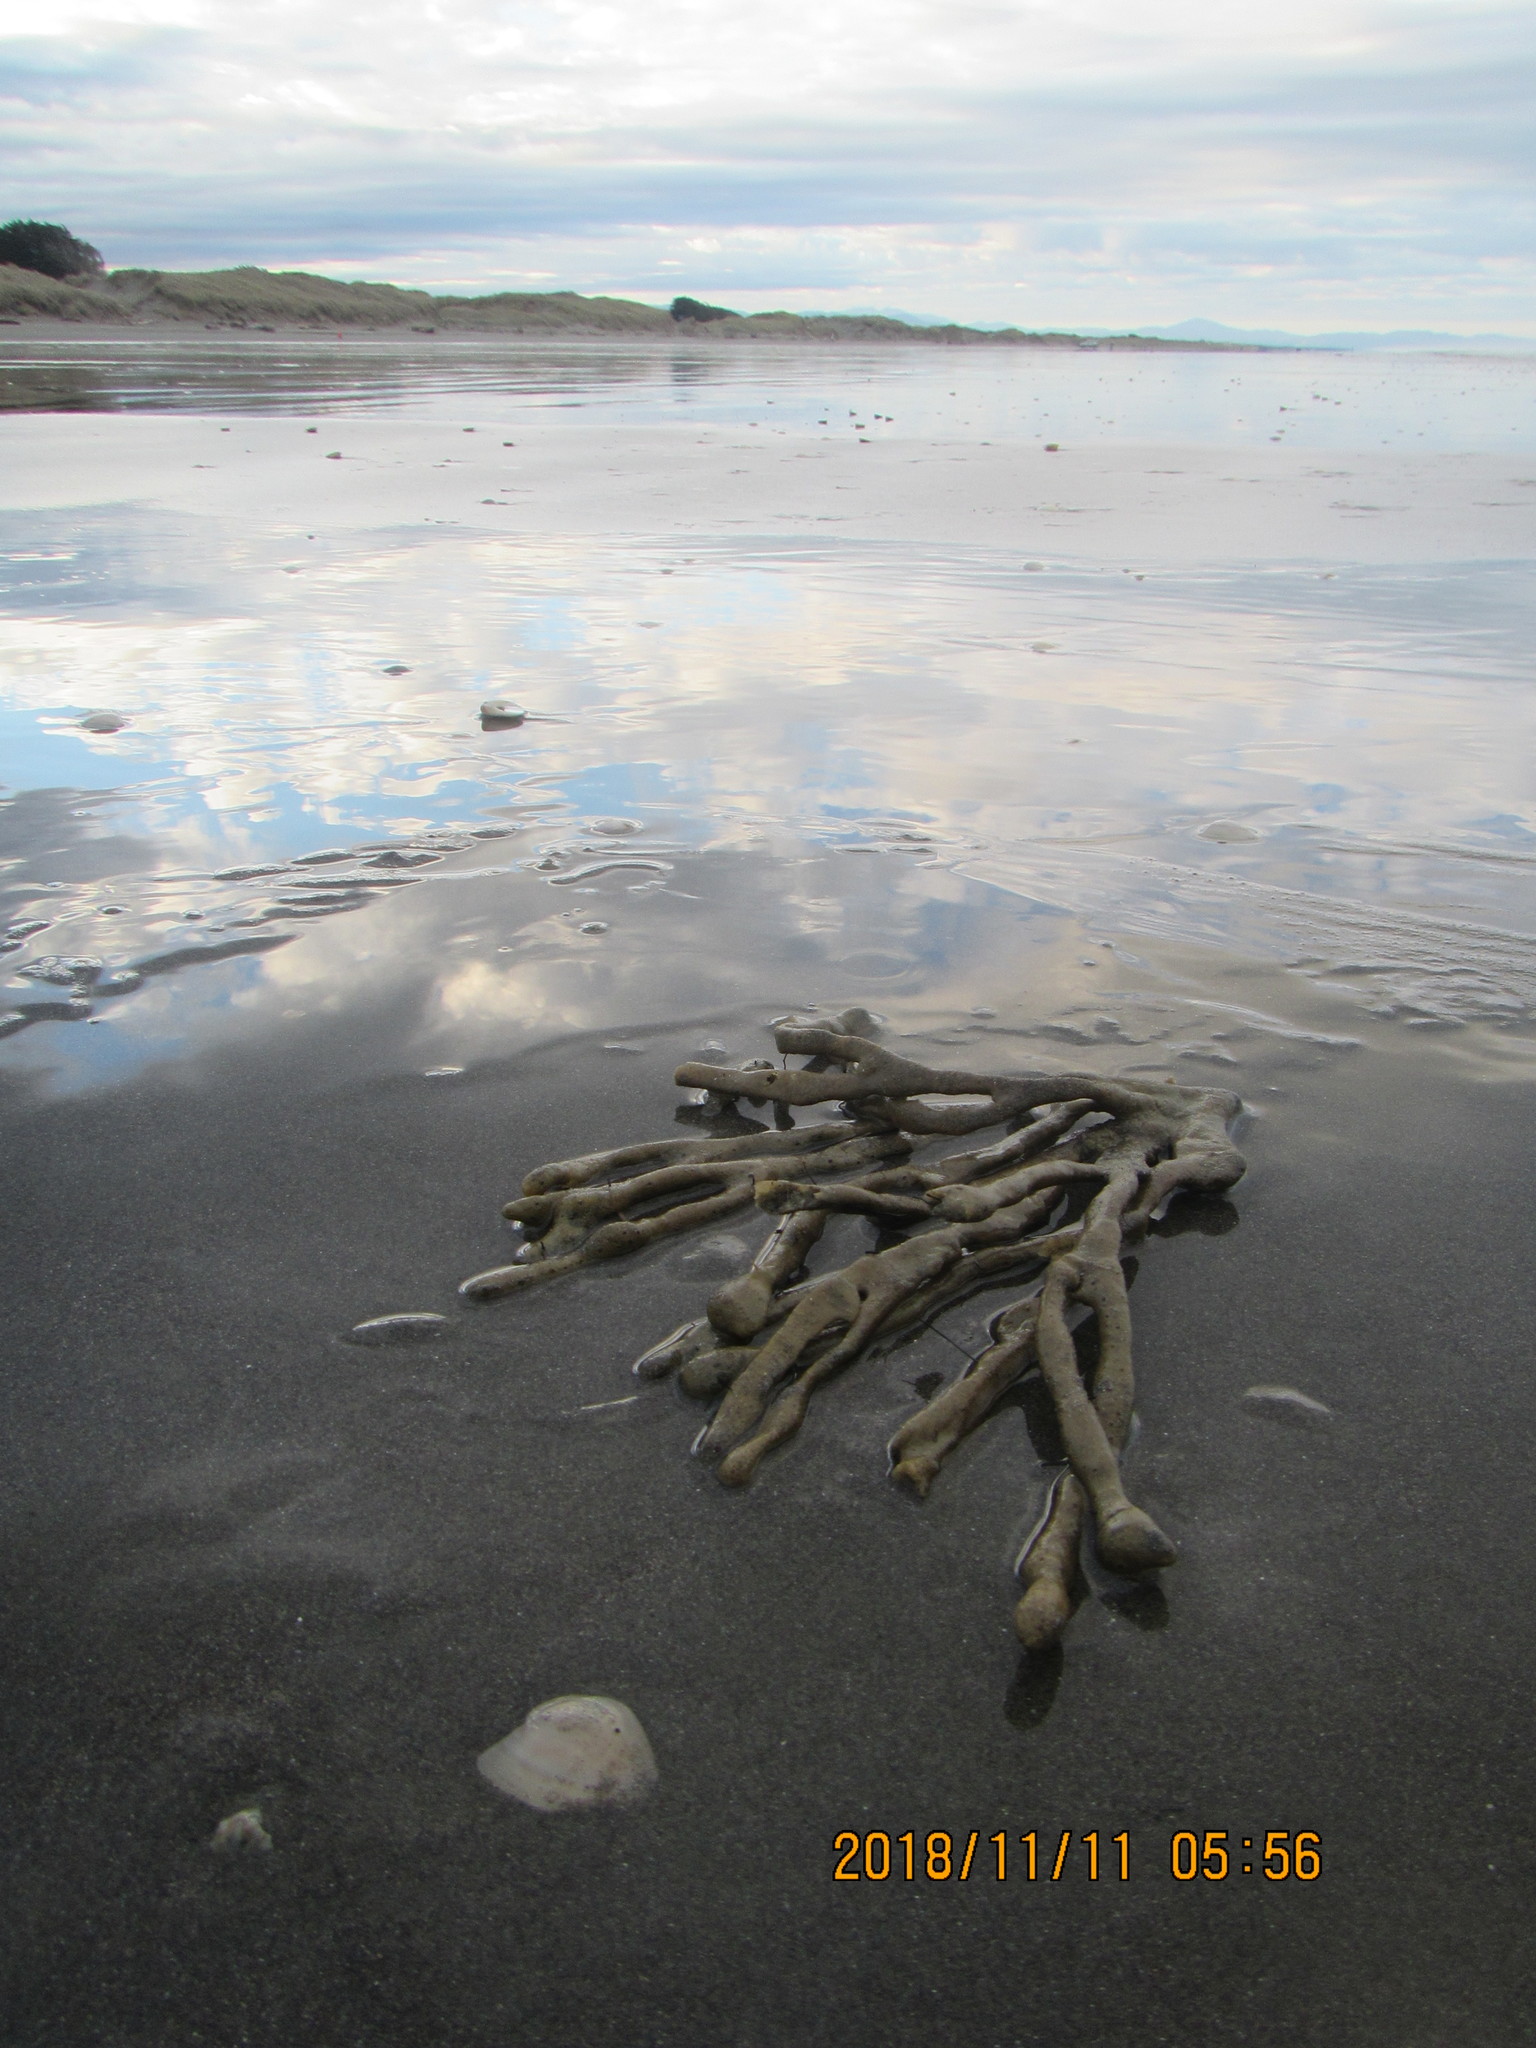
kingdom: Animalia
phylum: Mollusca
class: Gastropoda
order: Neogastropoda
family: Muricidae
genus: Poirieria
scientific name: Poirieria zelandica
